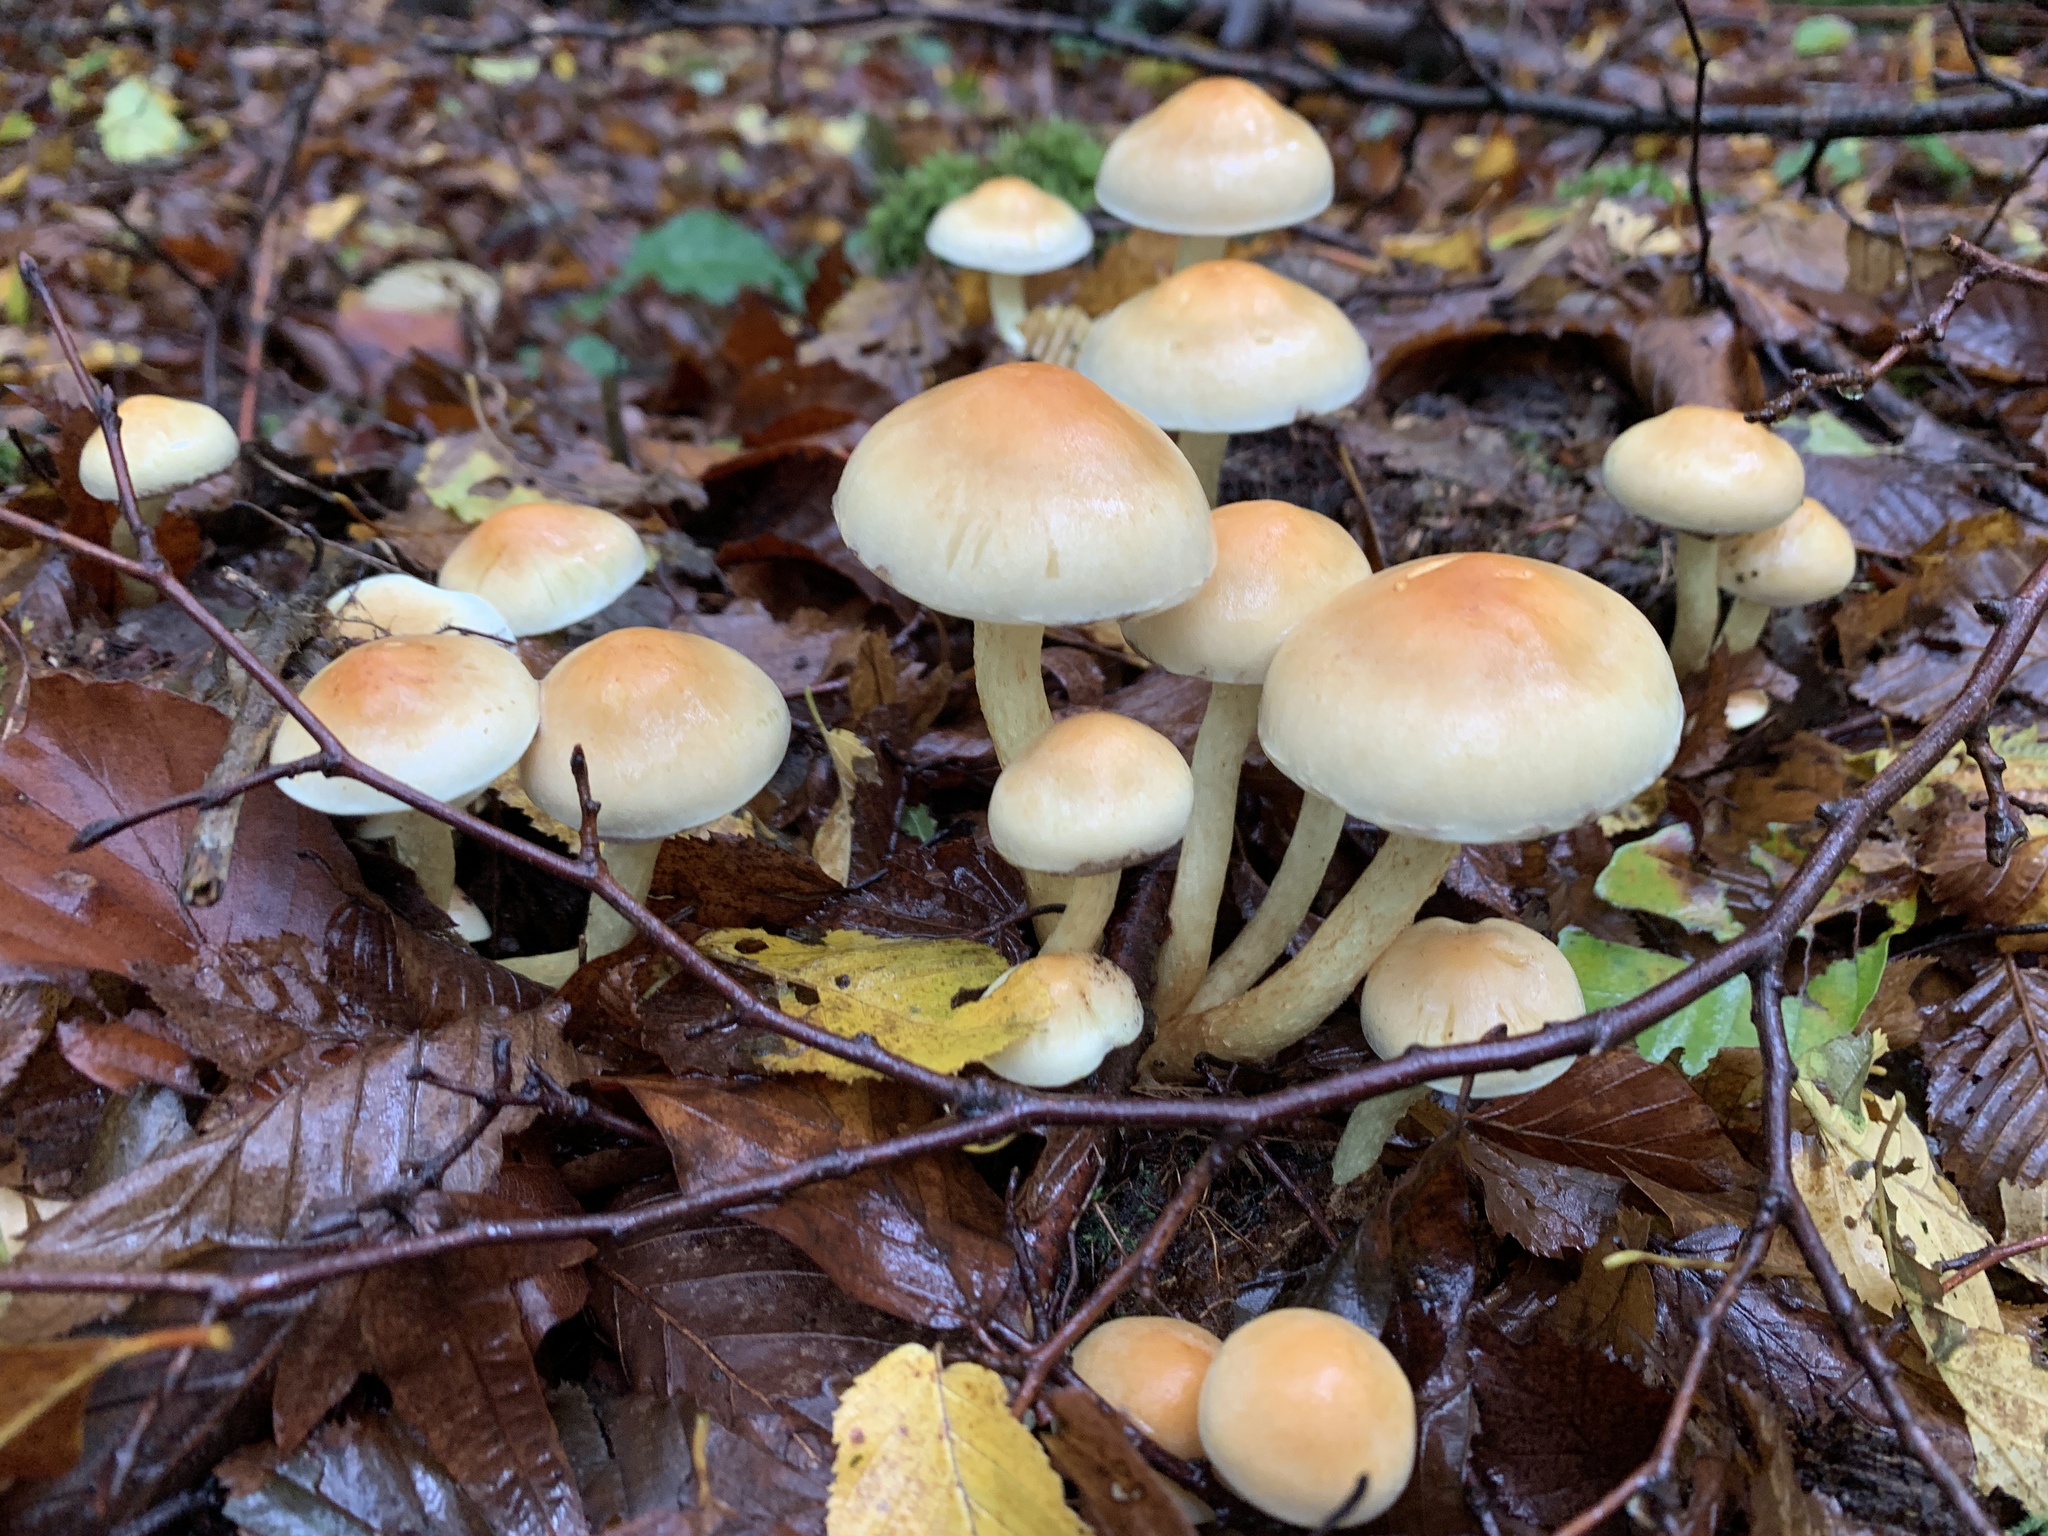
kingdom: Fungi
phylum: Basidiomycota
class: Agaricomycetes
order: Agaricales
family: Strophariaceae
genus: Hypholoma
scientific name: Hypholoma fasciculare
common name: Sulphur tuft
